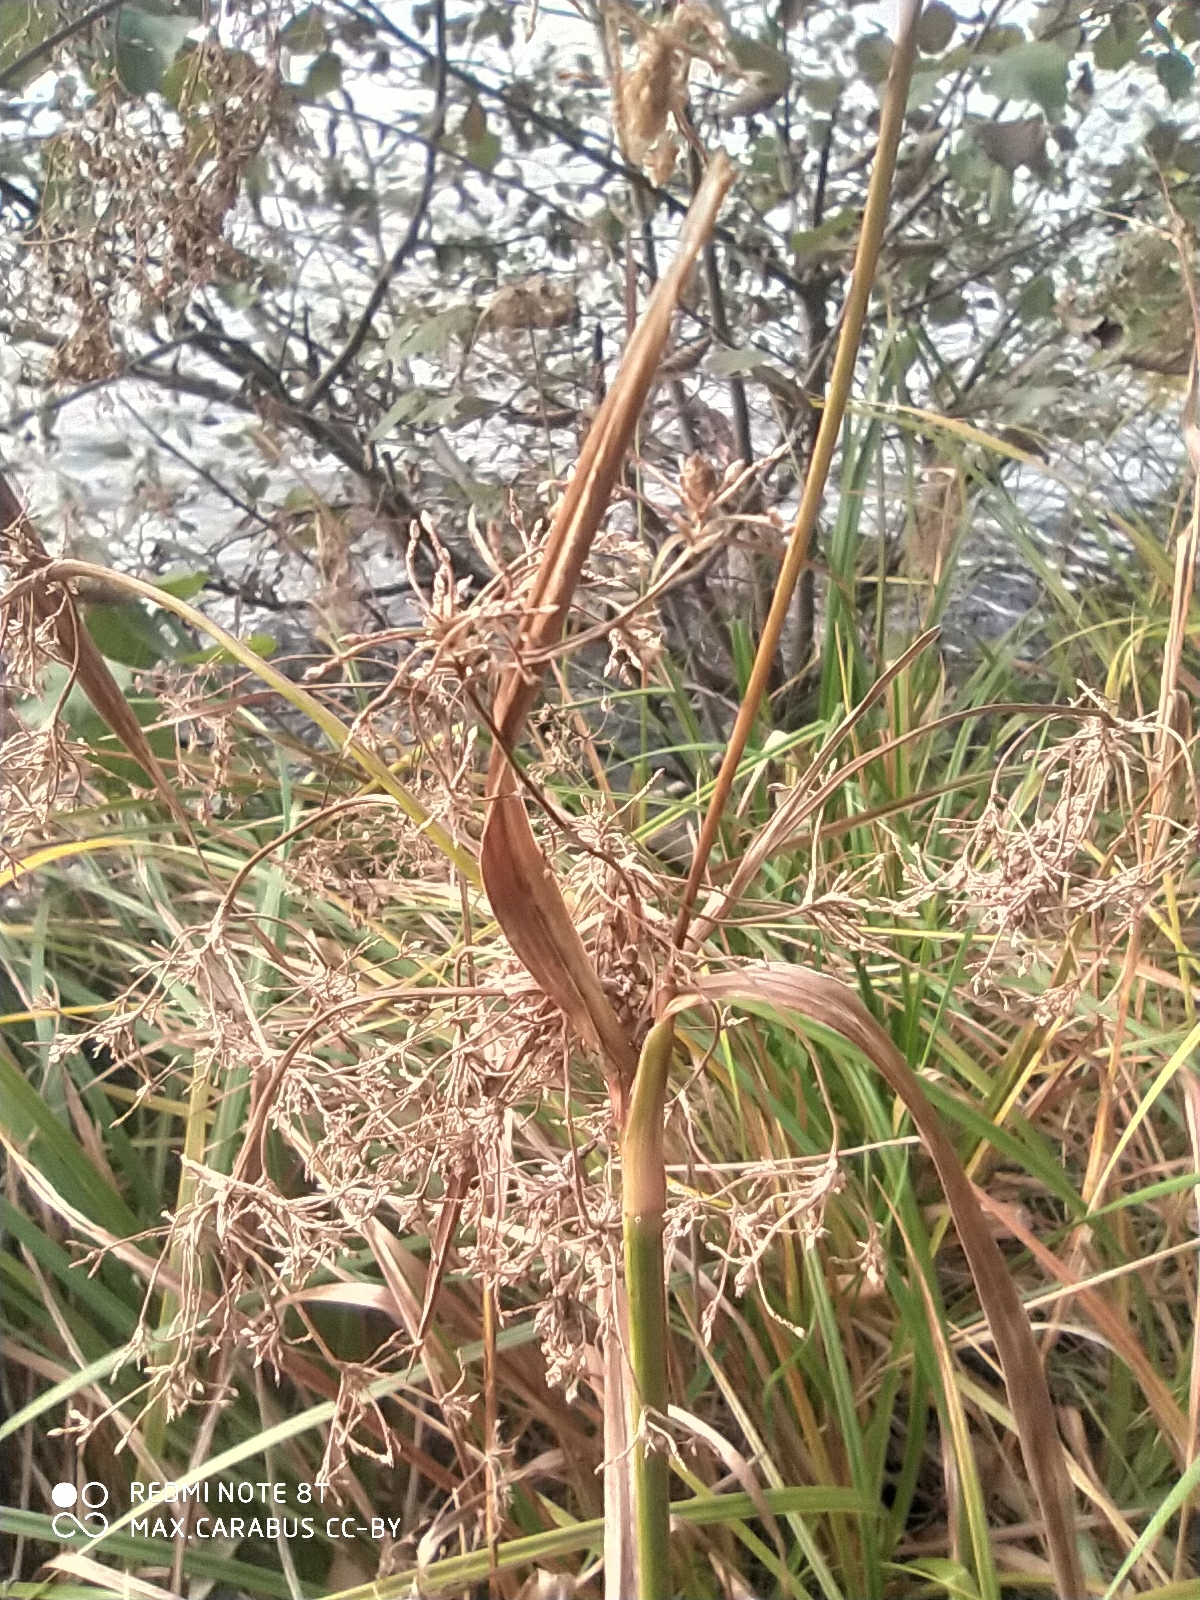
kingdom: Plantae
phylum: Tracheophyta
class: Liliopsida
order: Poales
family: Cyperaceae
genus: Scirpus
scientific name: Scirpus sylvaticus
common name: Wood club-rush
